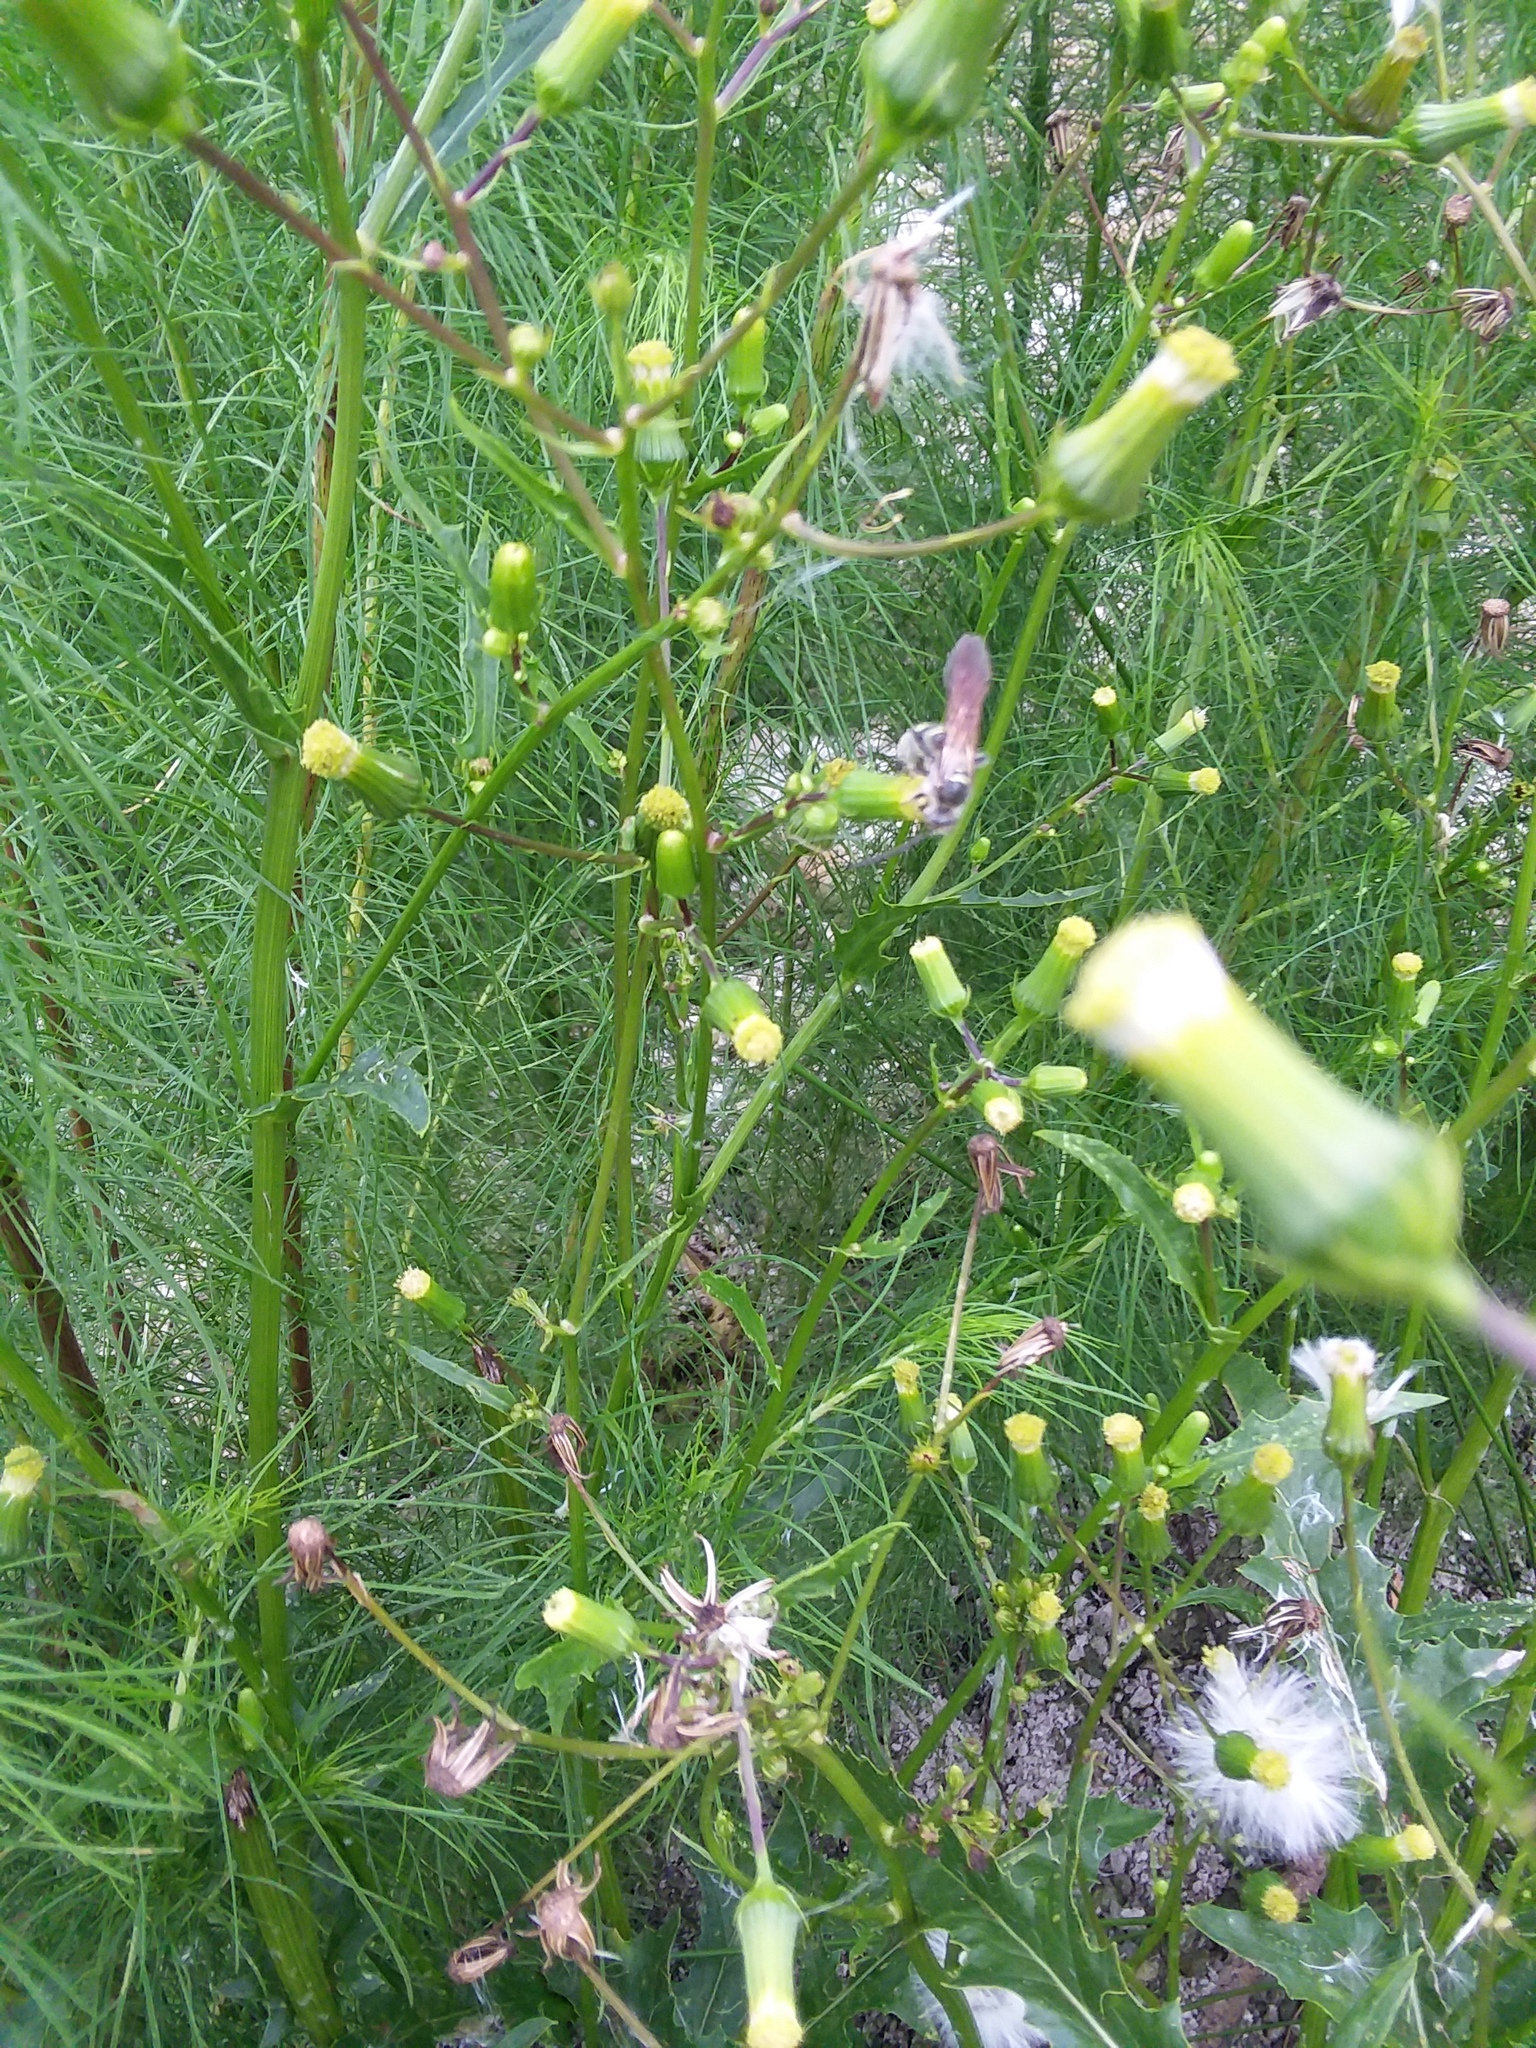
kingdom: Animalia
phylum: Arthropoda
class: Insecta
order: Hymenoptera
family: Scoliidae
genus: Dielis
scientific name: Dielis
